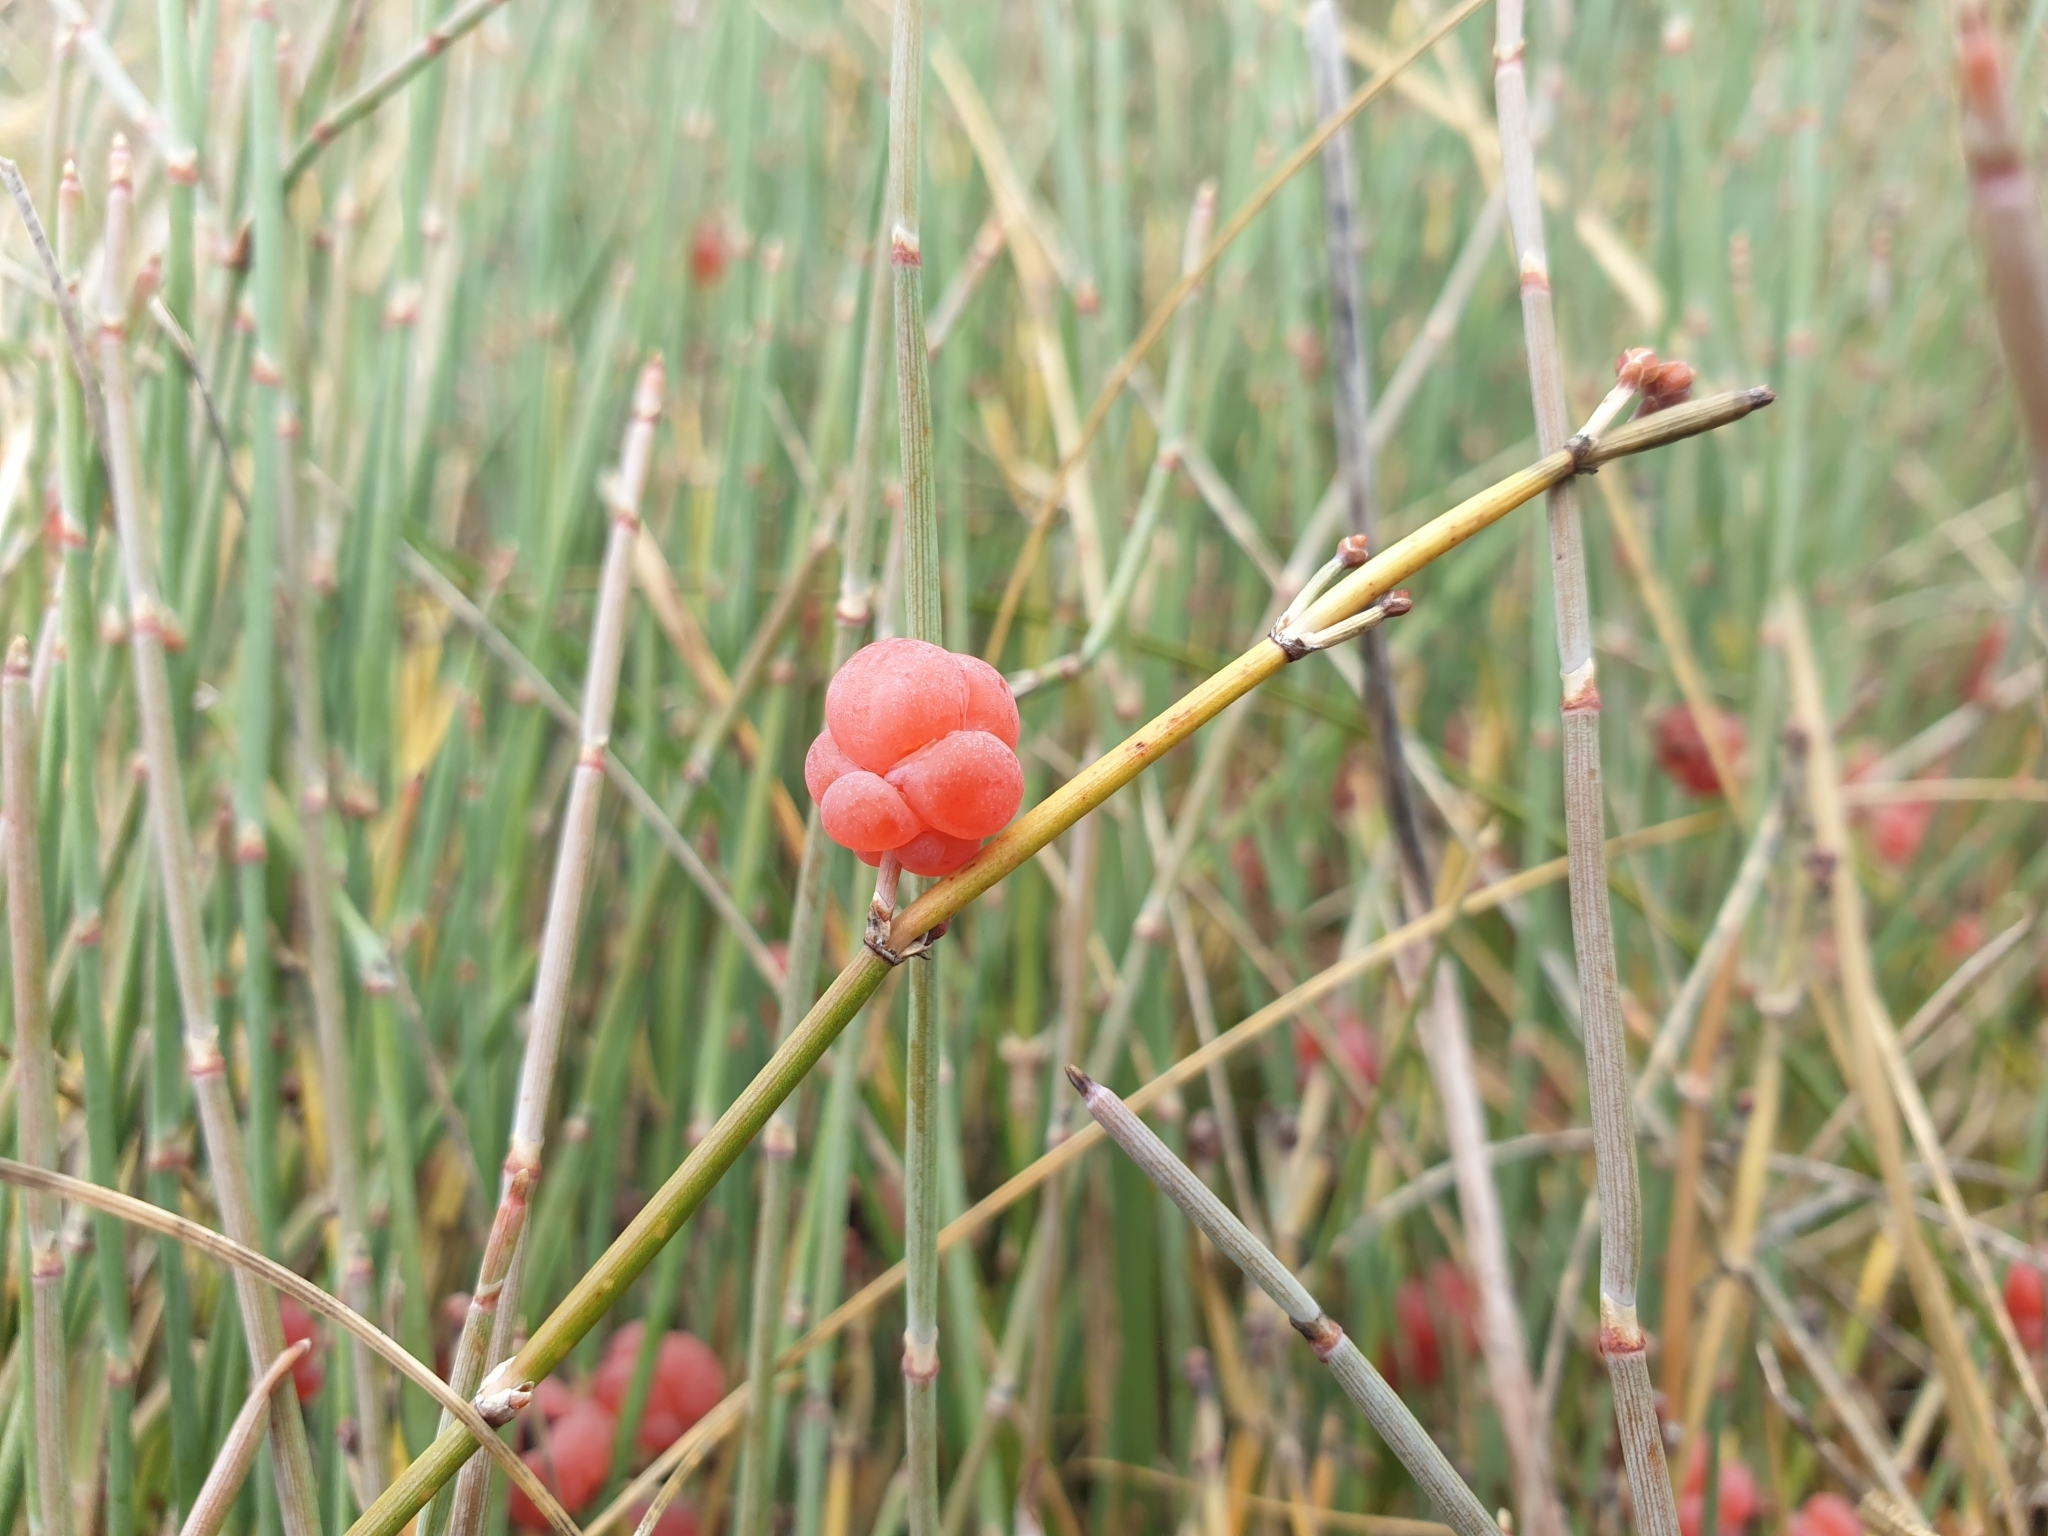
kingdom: Plantae
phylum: Tracheophyta
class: Gnetopsida
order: Ephedrales
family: Ephedraceae
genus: Ephedra
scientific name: Ephedra distachya
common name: Sea grape
